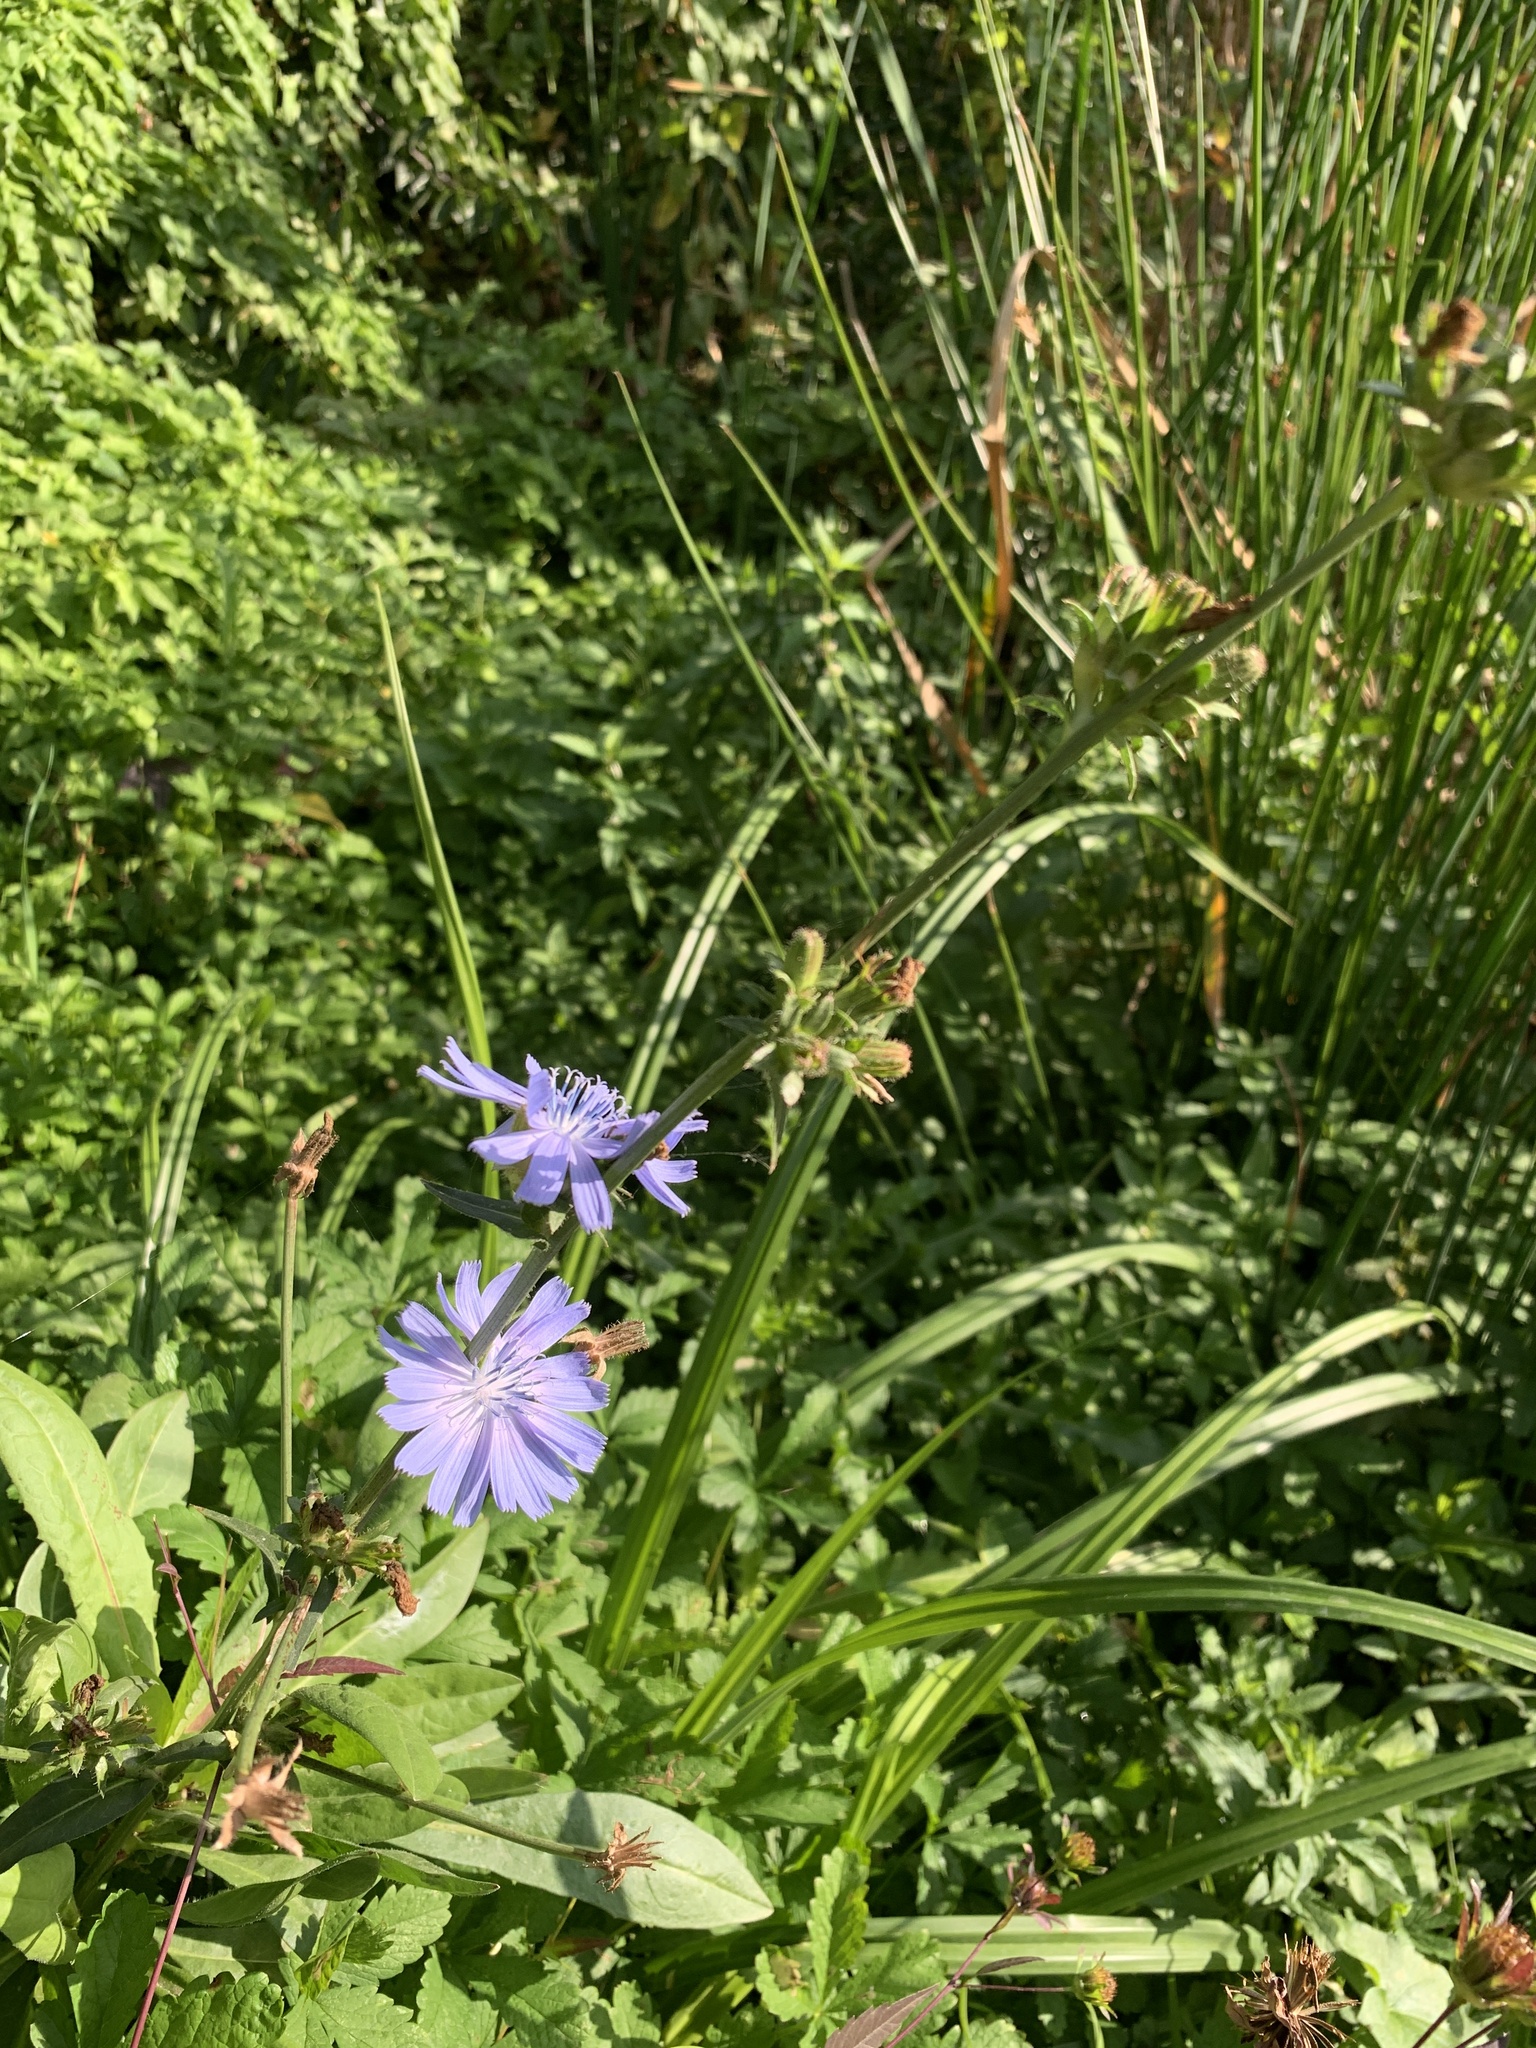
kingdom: Plantae
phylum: Tracheophyta
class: Magnoliopsida
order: Asterales
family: Asteraceae
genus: Cichorium
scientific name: Cichorium intybus
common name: Chicory
